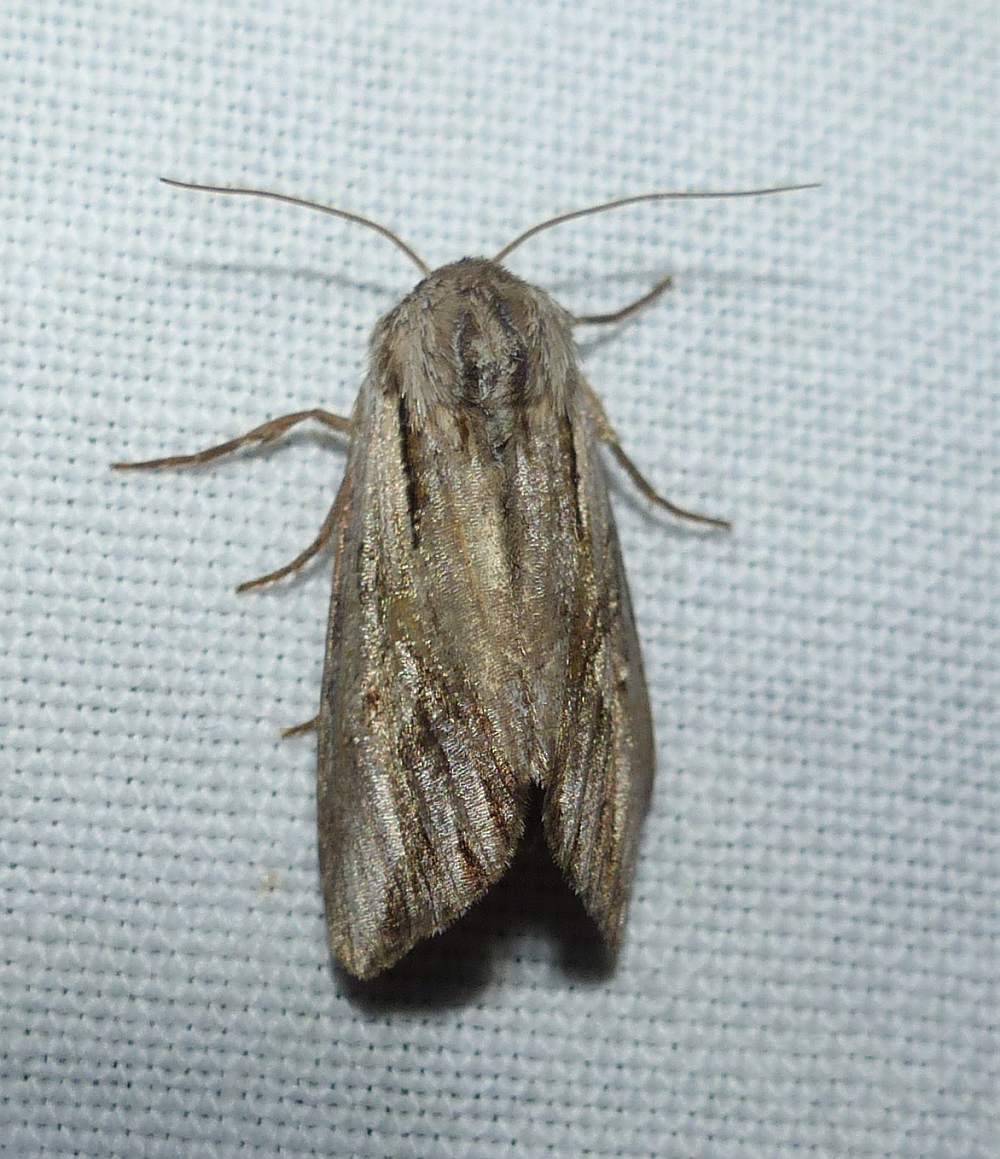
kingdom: Animalia
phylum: Arthropoda
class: Insecta
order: Lepidoptera
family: Noctuidae
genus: Nedra
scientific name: Nedra ramosula
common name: Gray half-spot
